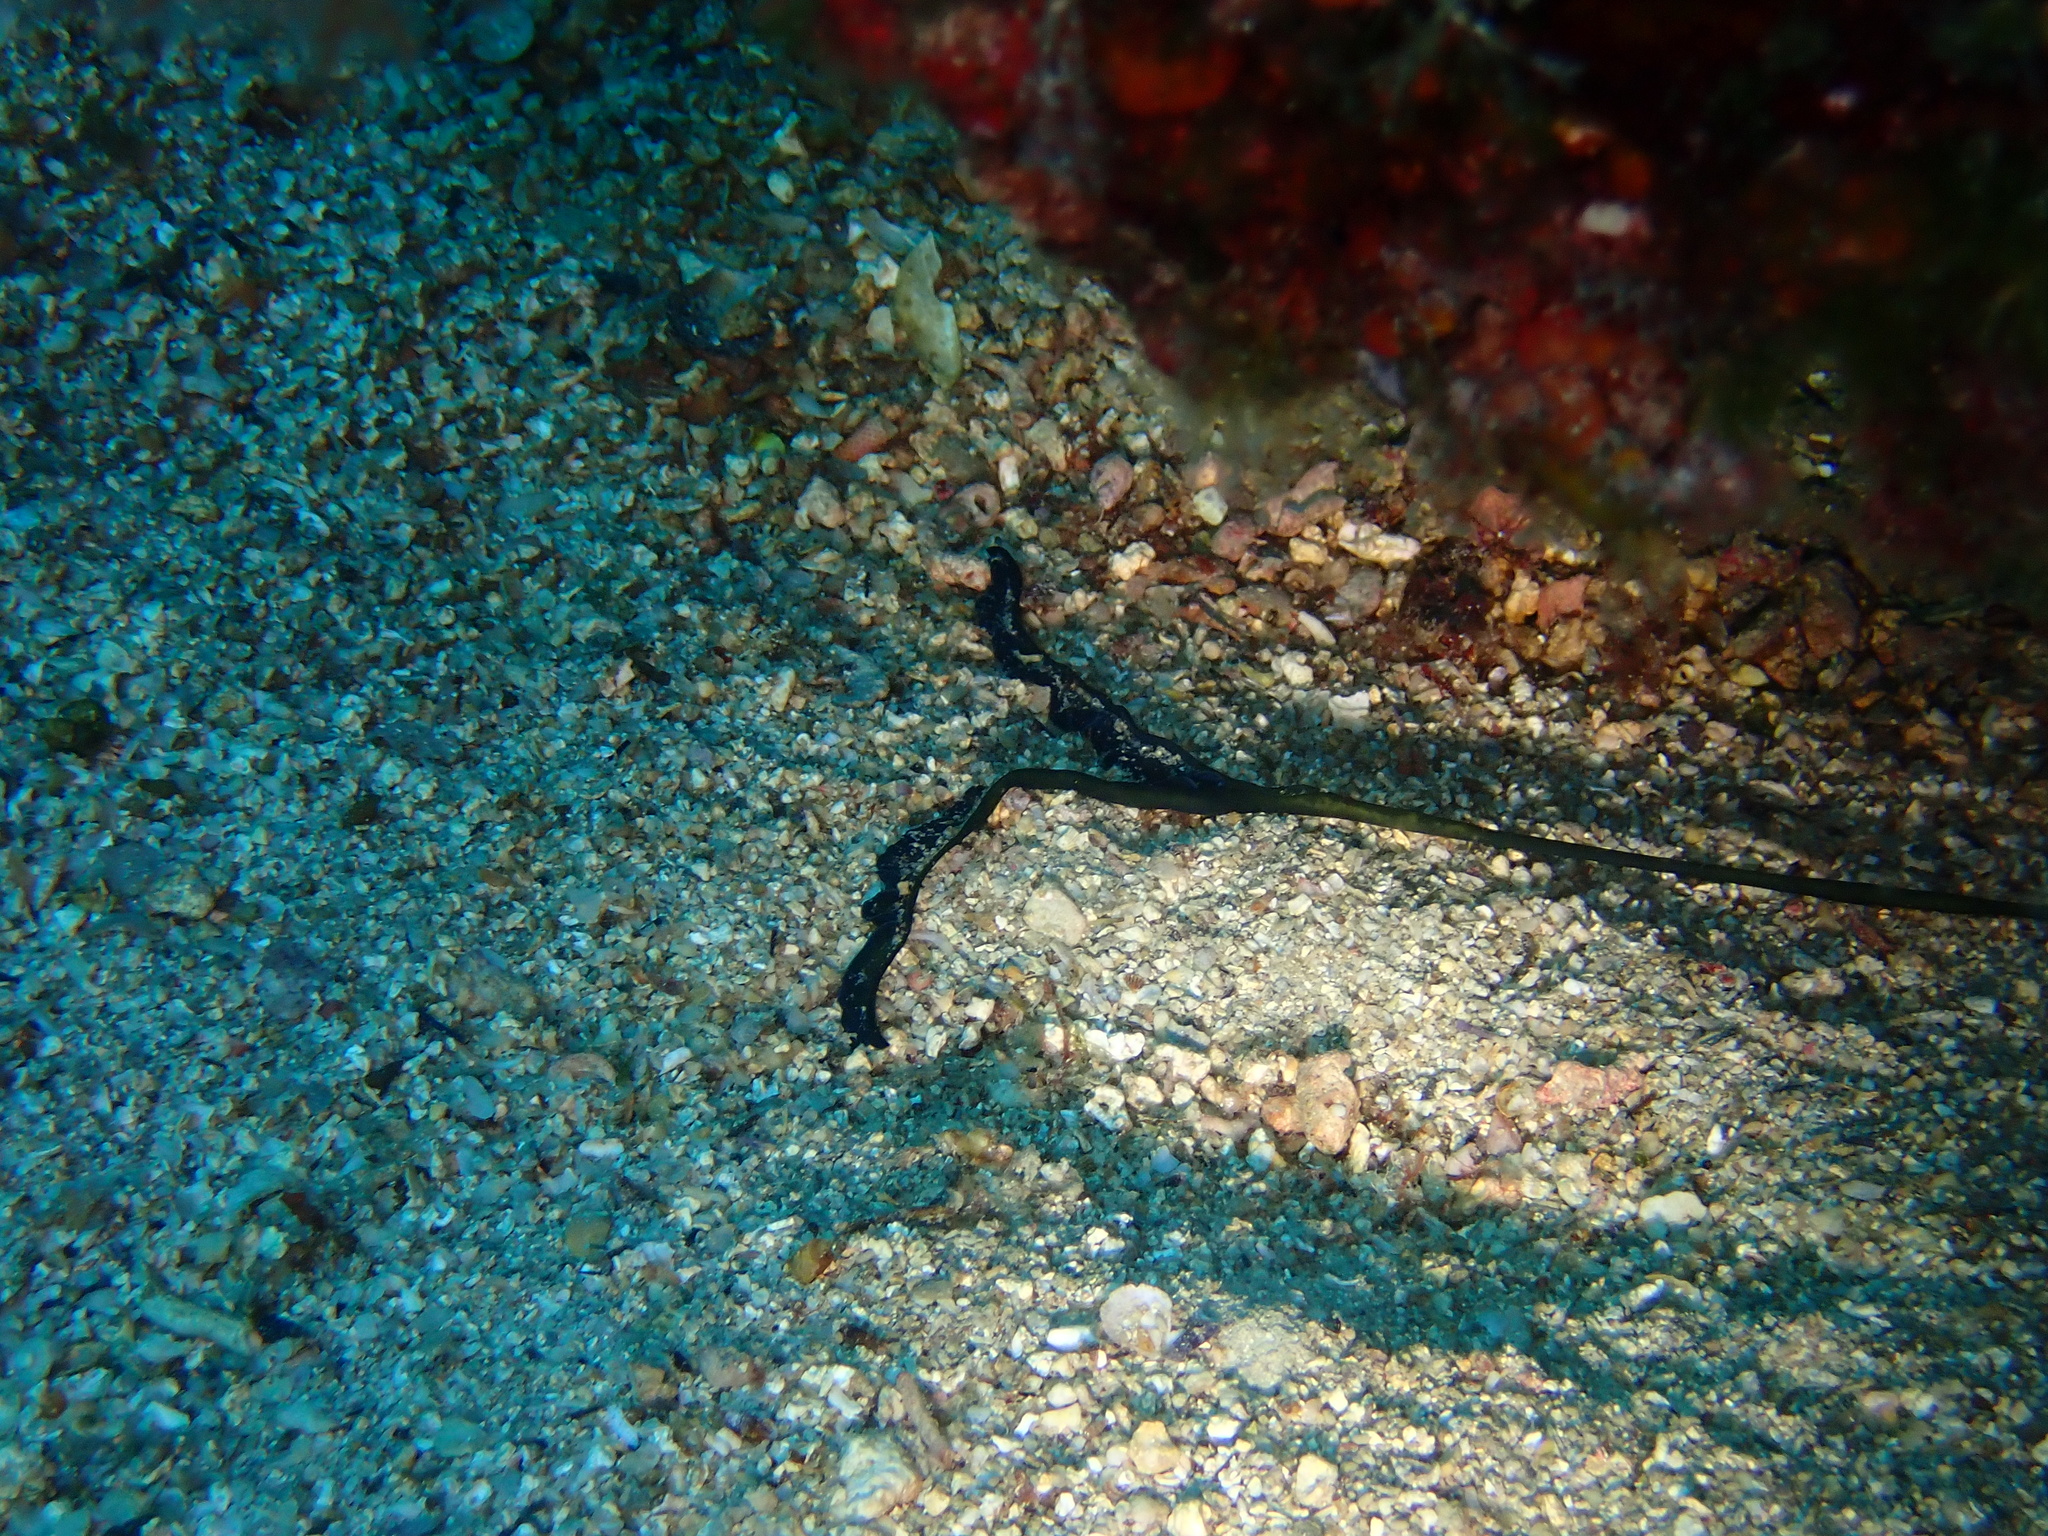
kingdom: Animalia
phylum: Annelida
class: Polychaeta
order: Echiuroidea
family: Bonelliidae
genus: Bonellia
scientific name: Bonellia viridis
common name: Green spoon worm
